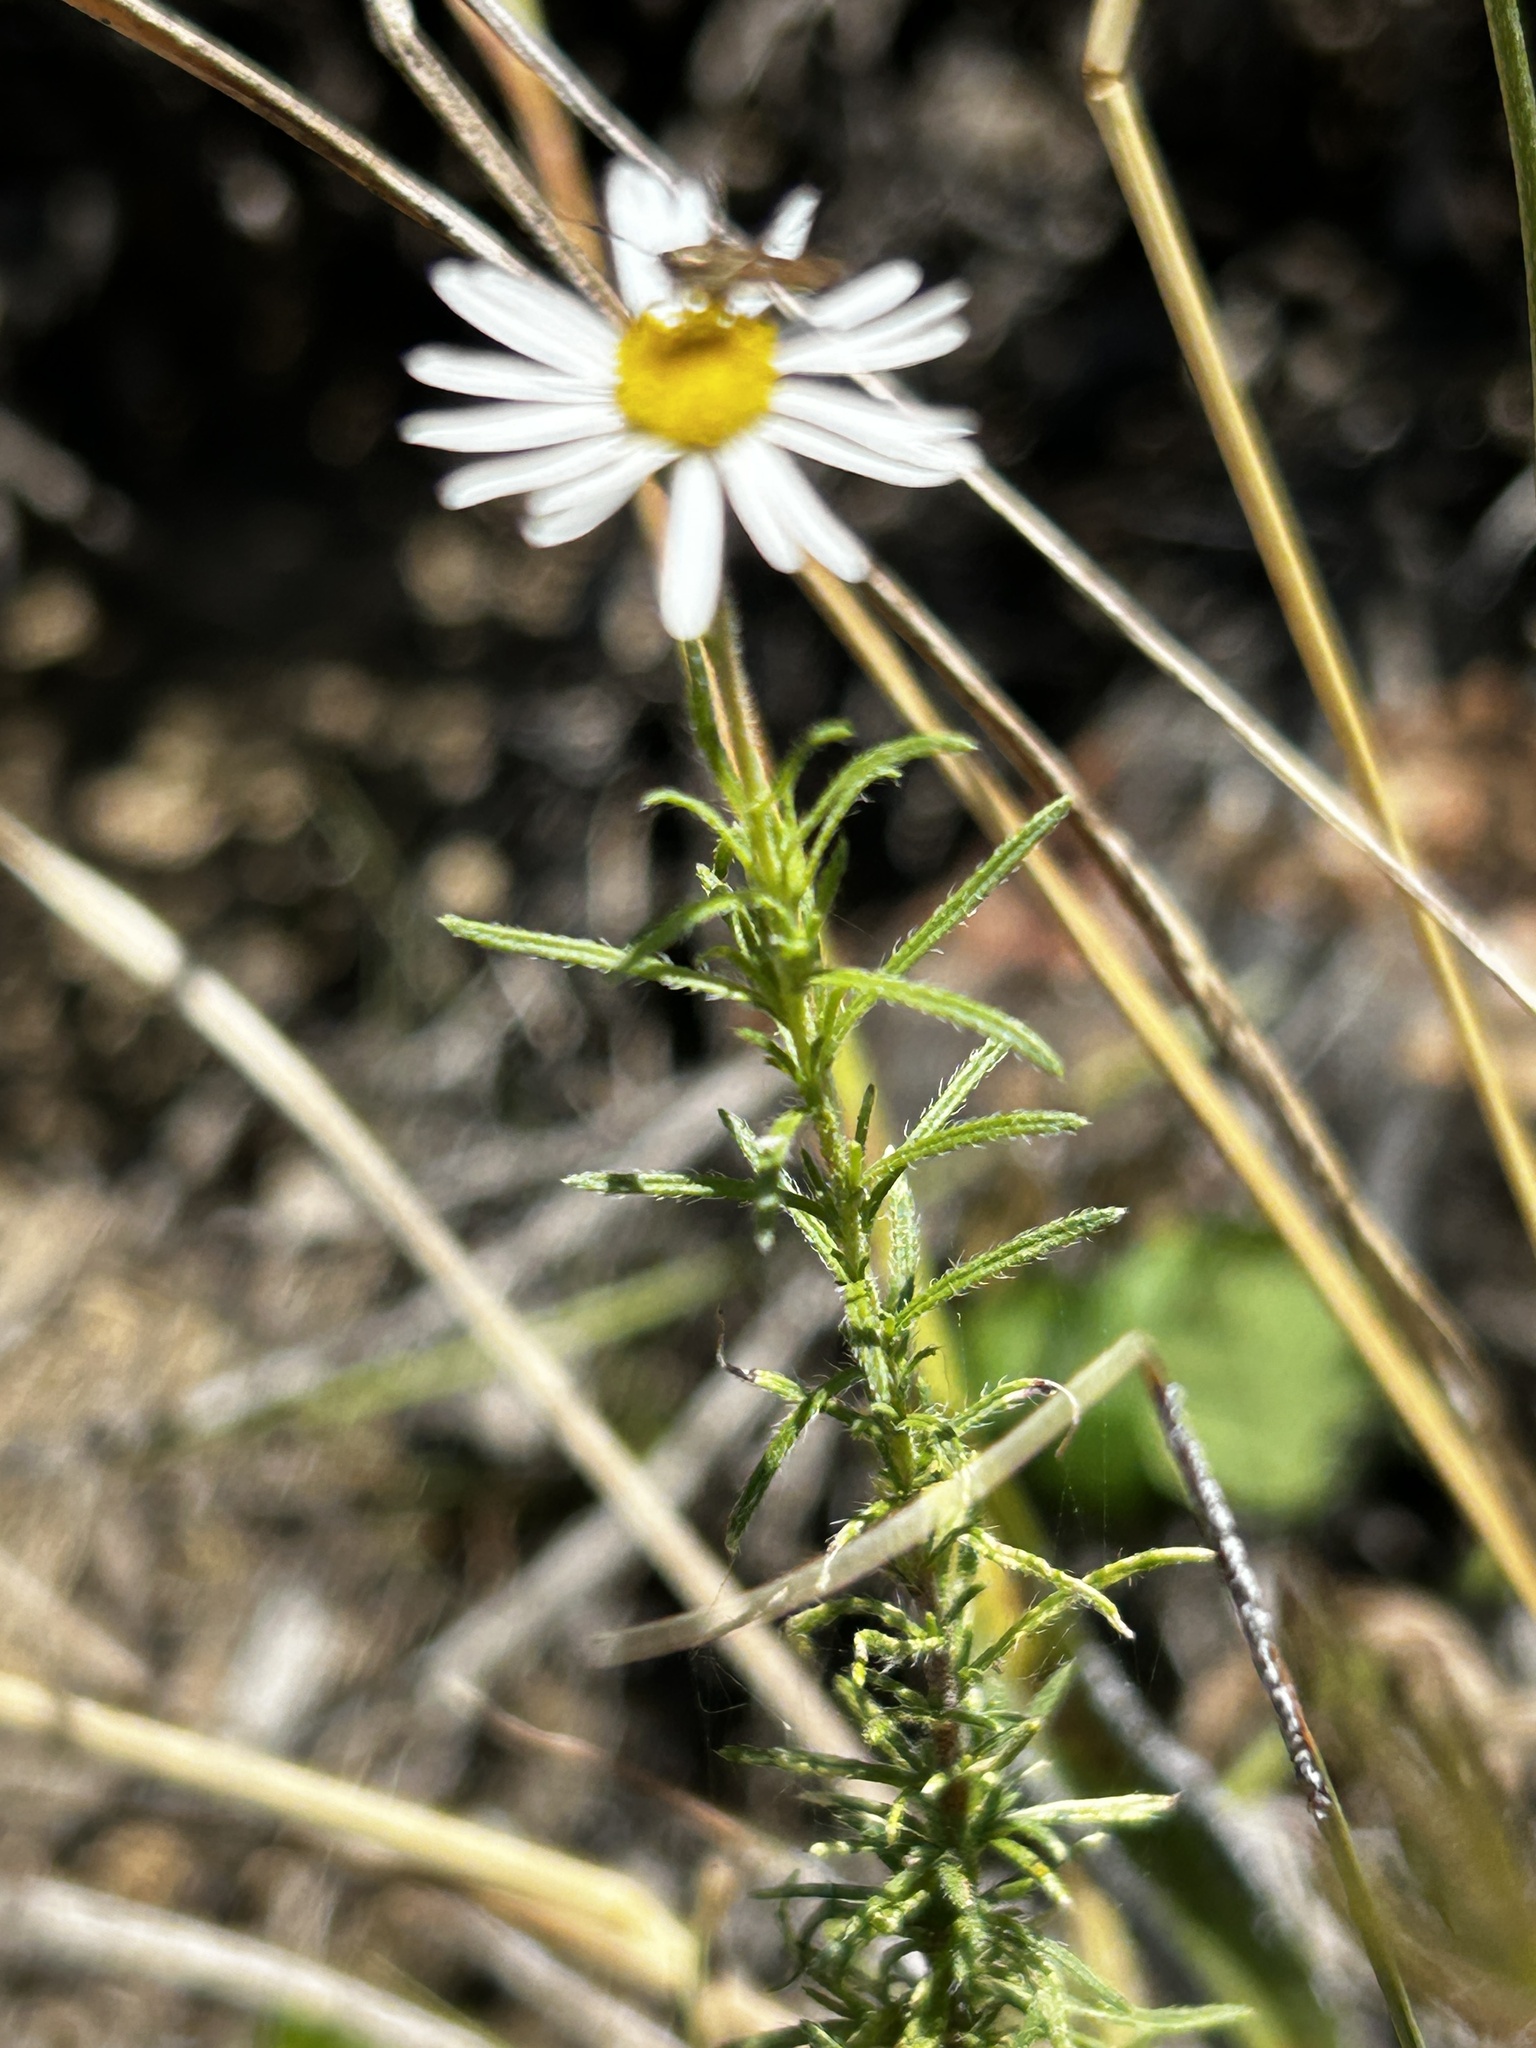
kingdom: Plantae
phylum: Tracheophyta
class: Magnoliopsida
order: Asterales
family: Asteraceae
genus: Felicia
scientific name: Felicia muricata
